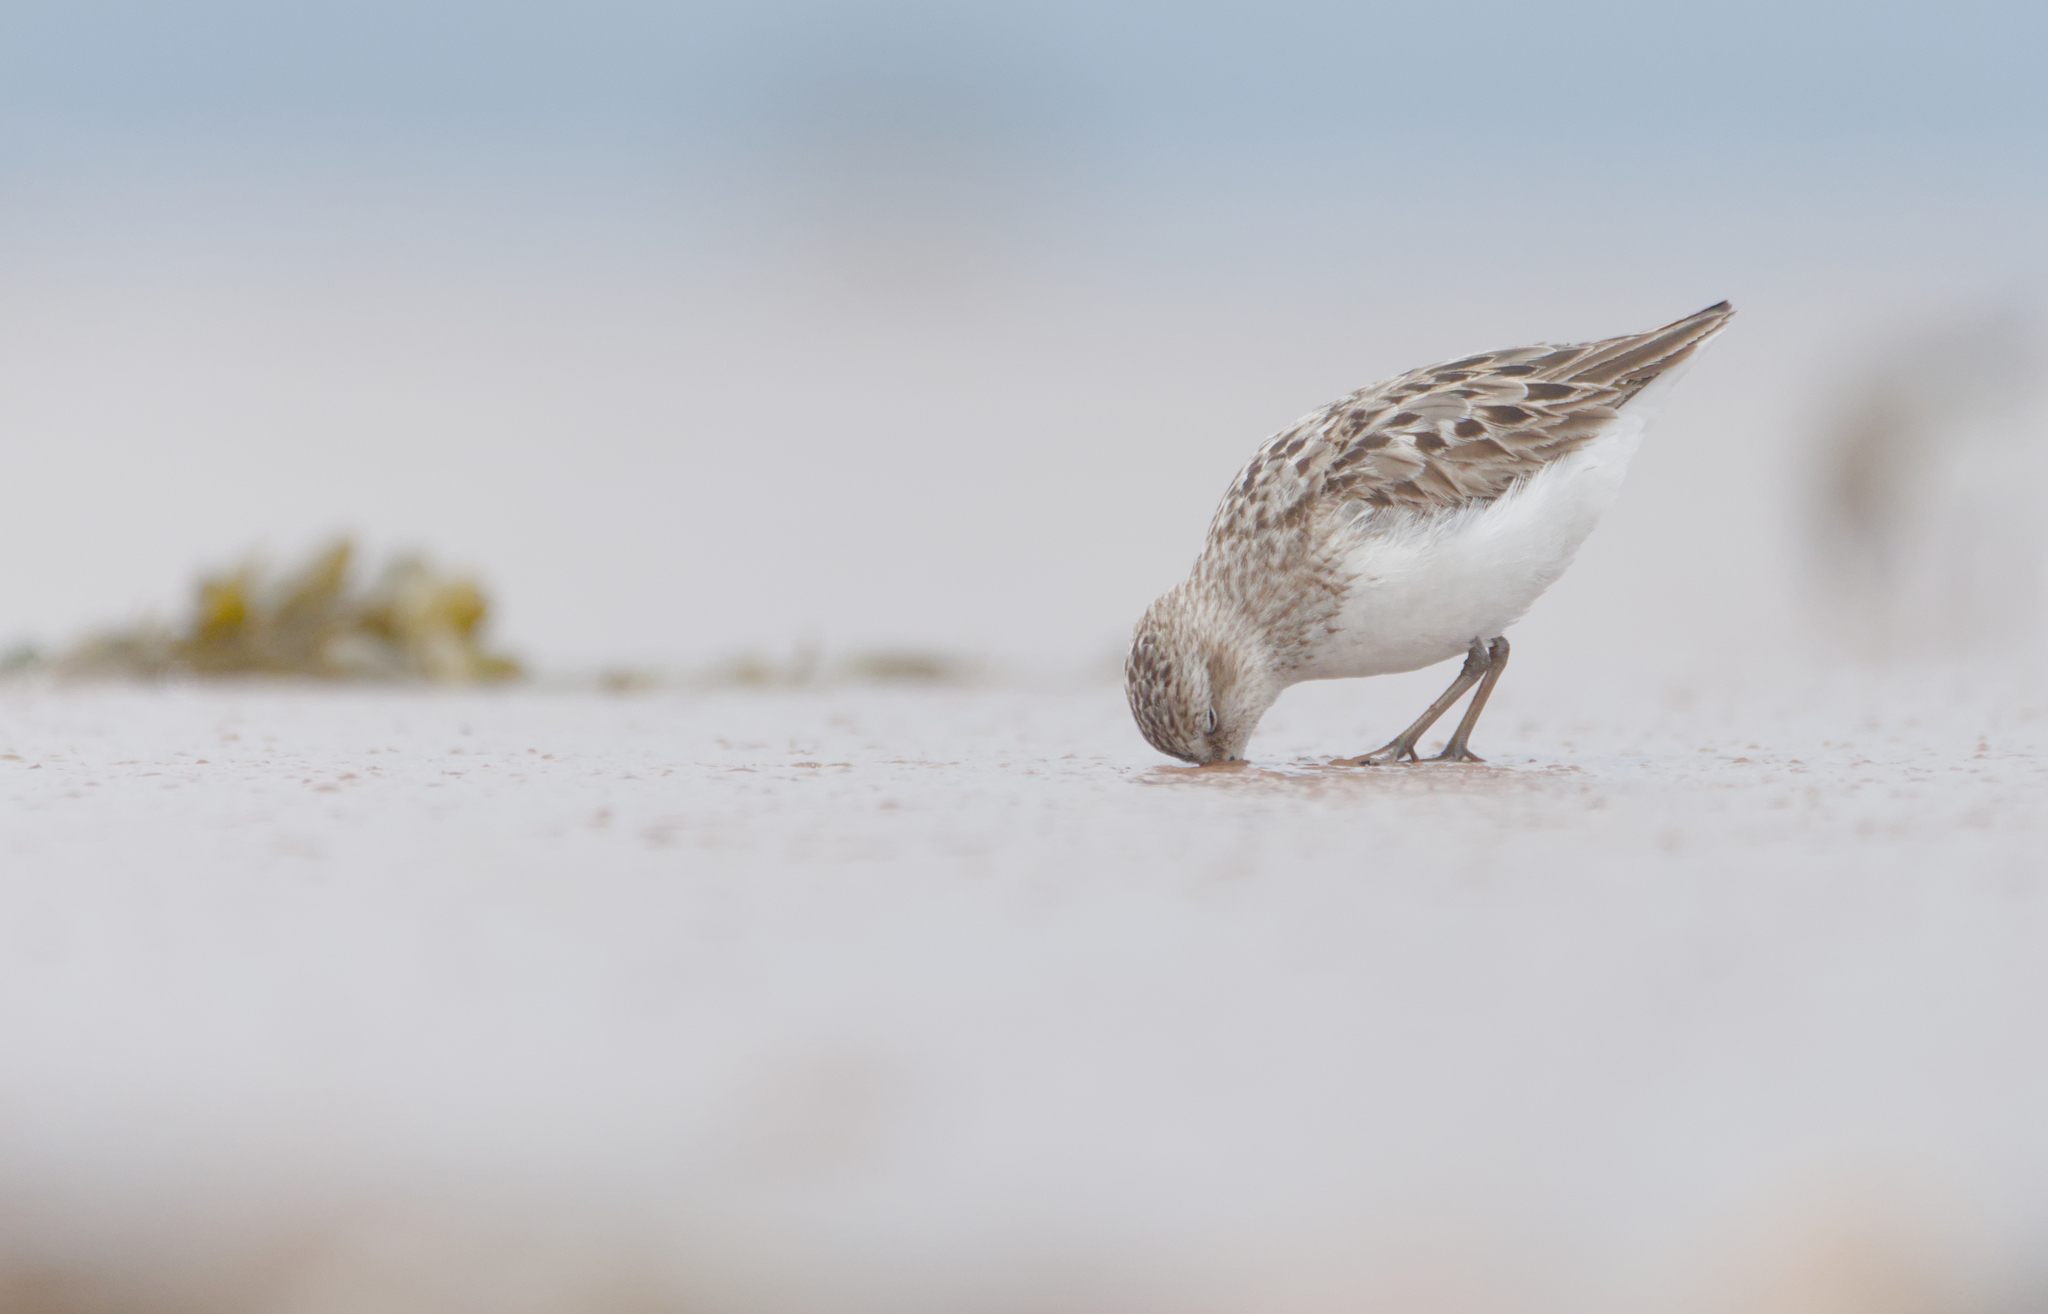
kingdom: Animalia
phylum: Chordata
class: Aves
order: Charadriiformes
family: Scolopacidae
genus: Calidris
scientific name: Calidris pusilla
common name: Semipalmated sandpiper
